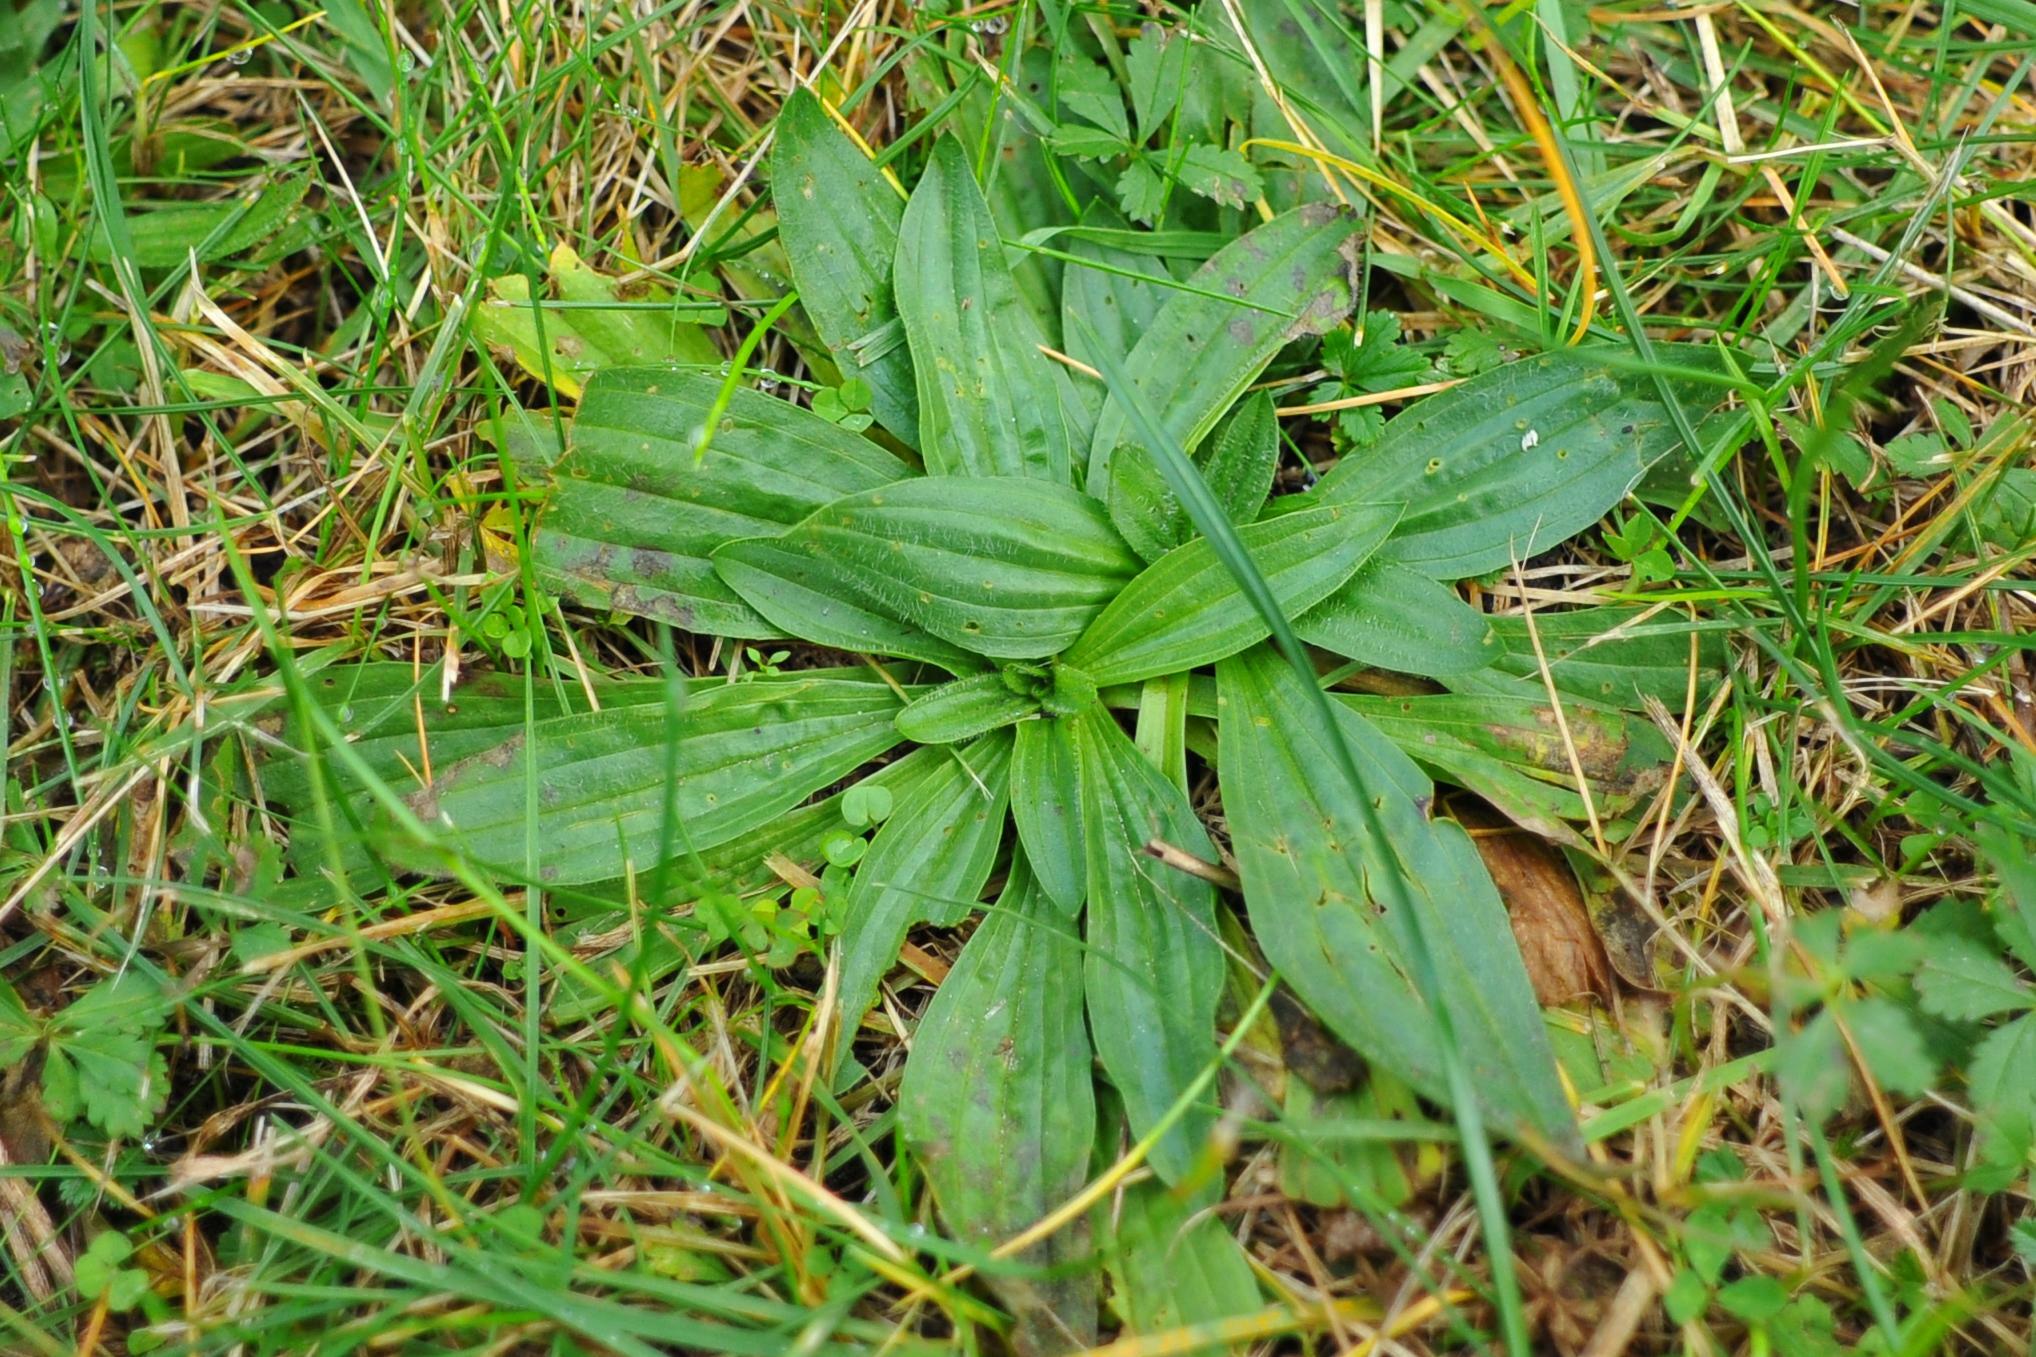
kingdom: Plantae
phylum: Tracheophyta
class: Magnoliopsida
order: Lamiales
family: Plantaginaceae
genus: Plantago
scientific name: Plantago lanceolata
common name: Ribwort plantain
